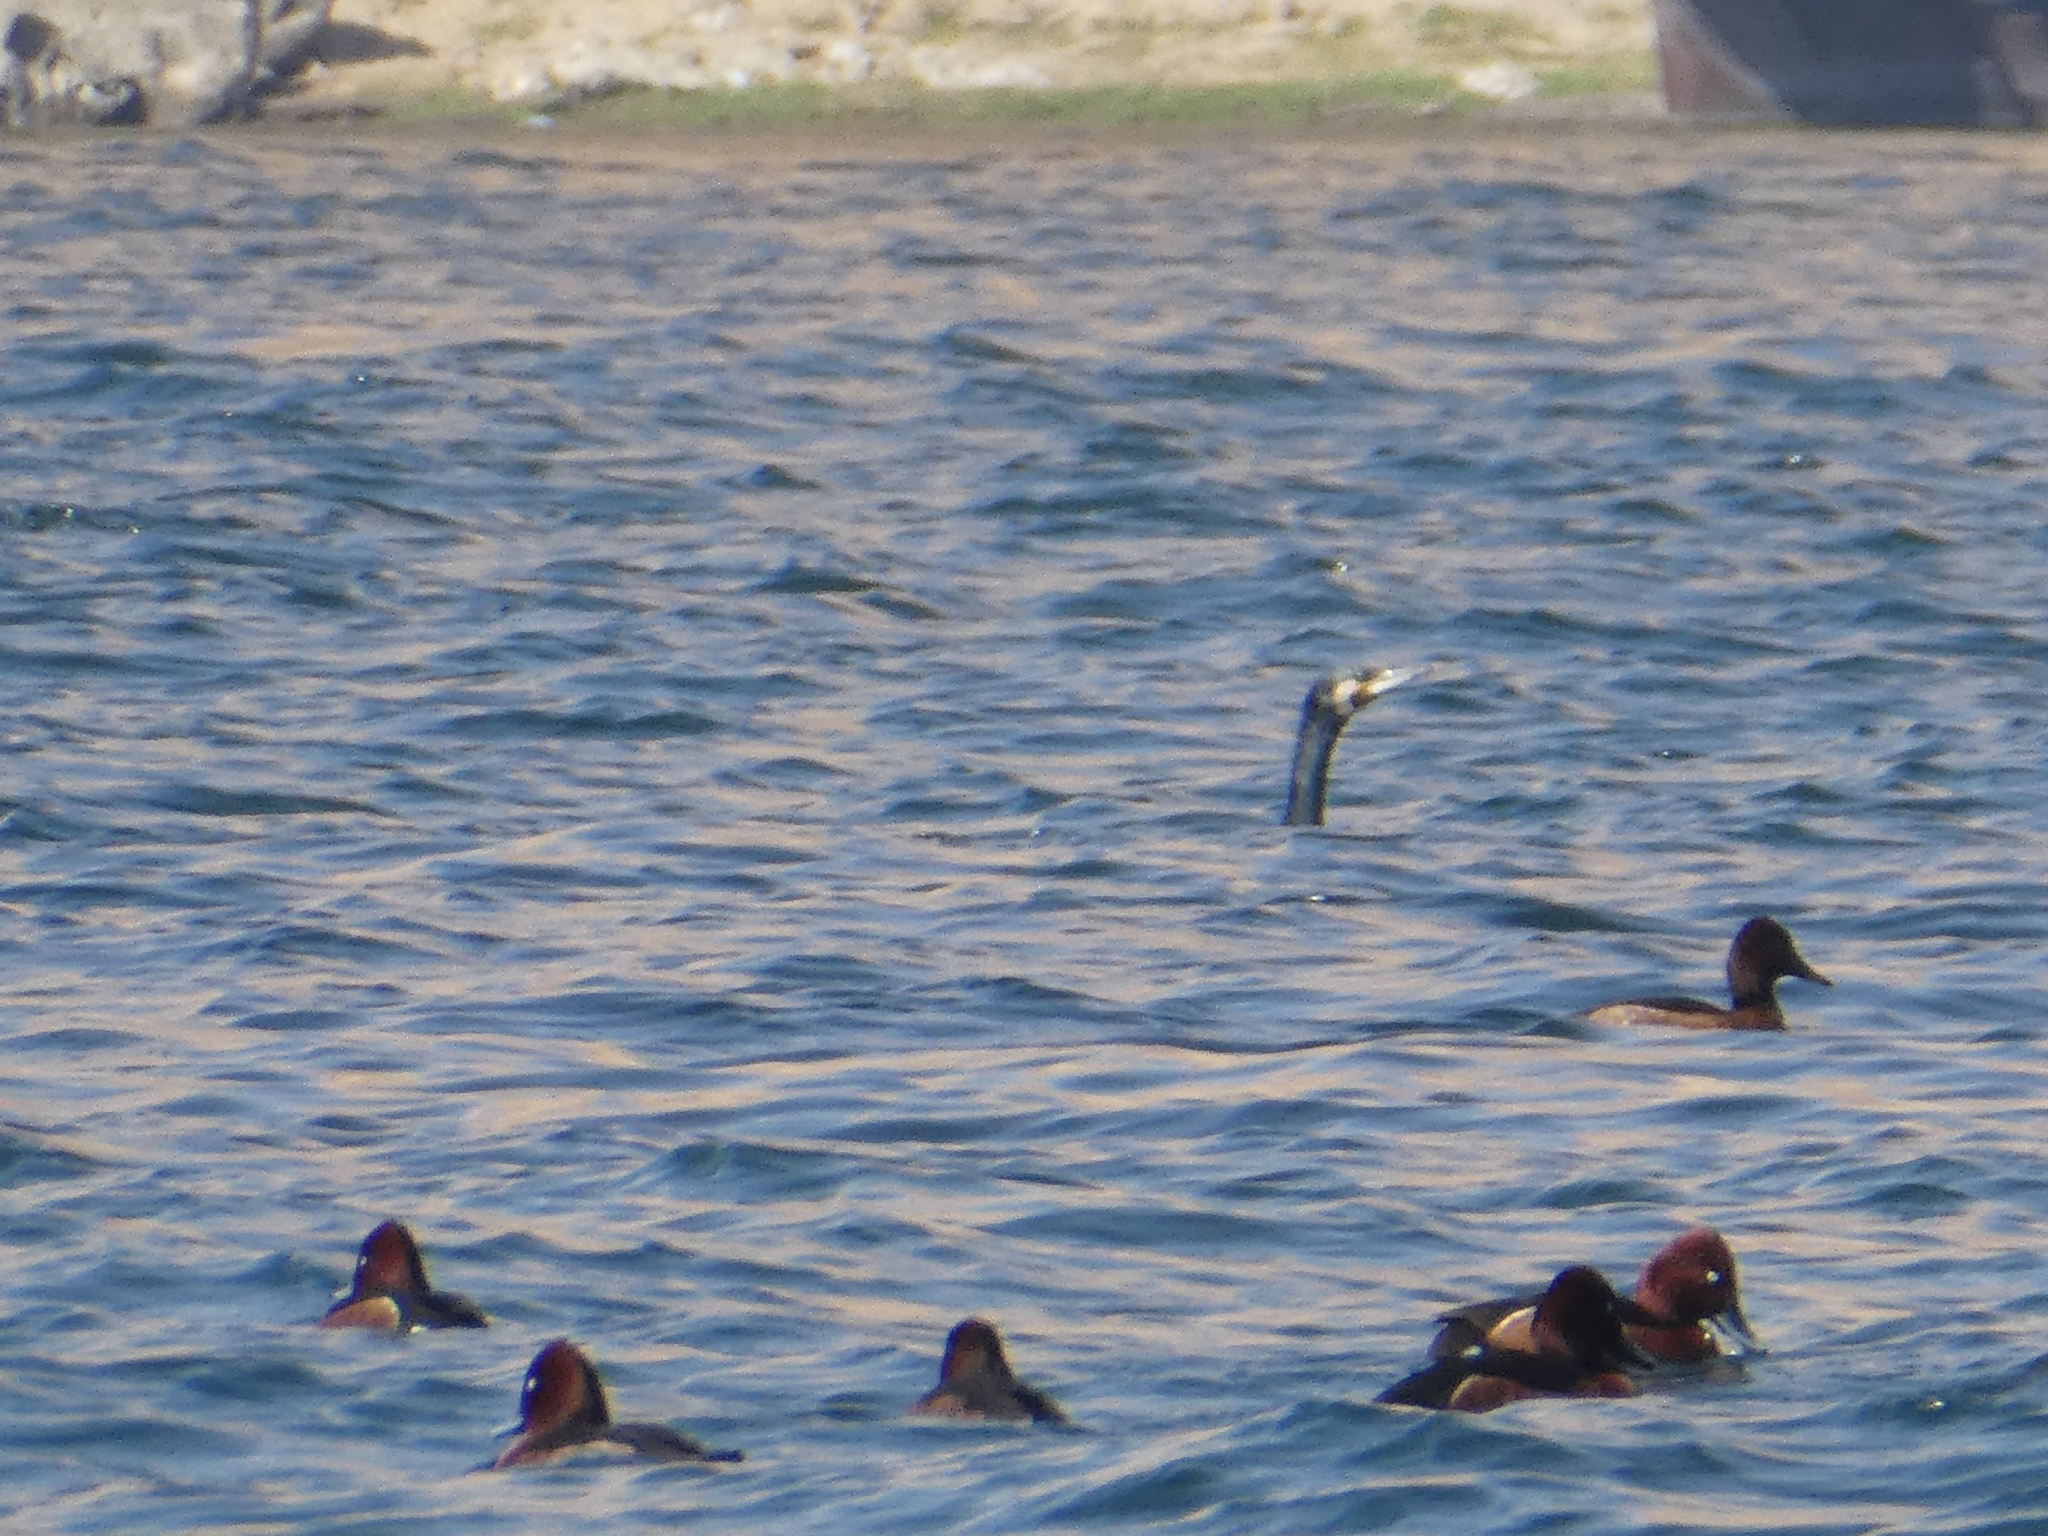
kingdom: Animalia
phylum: Chordata
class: Aves
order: Anseriformes
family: Anatidae
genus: Aythya
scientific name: Aythya nyroca
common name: Ferruginous duck
